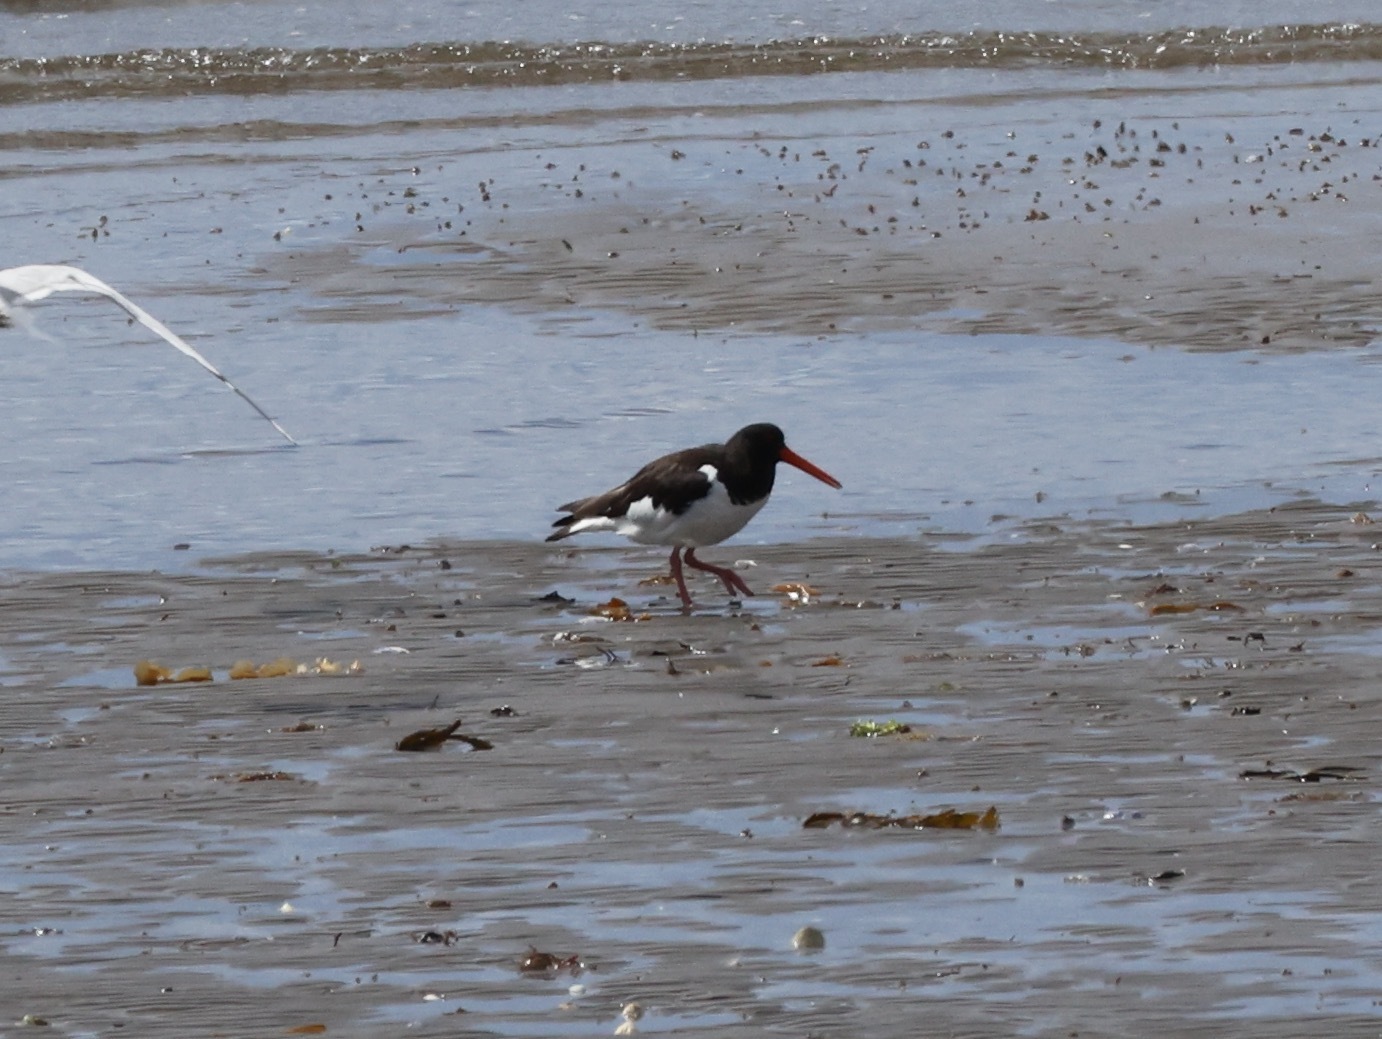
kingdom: Animalia
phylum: Chordata
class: Aves
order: Charadriiformes
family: Haematopodidae
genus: Haematopus
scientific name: Haematopus ostralegus
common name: Eurasian oystercatcher
